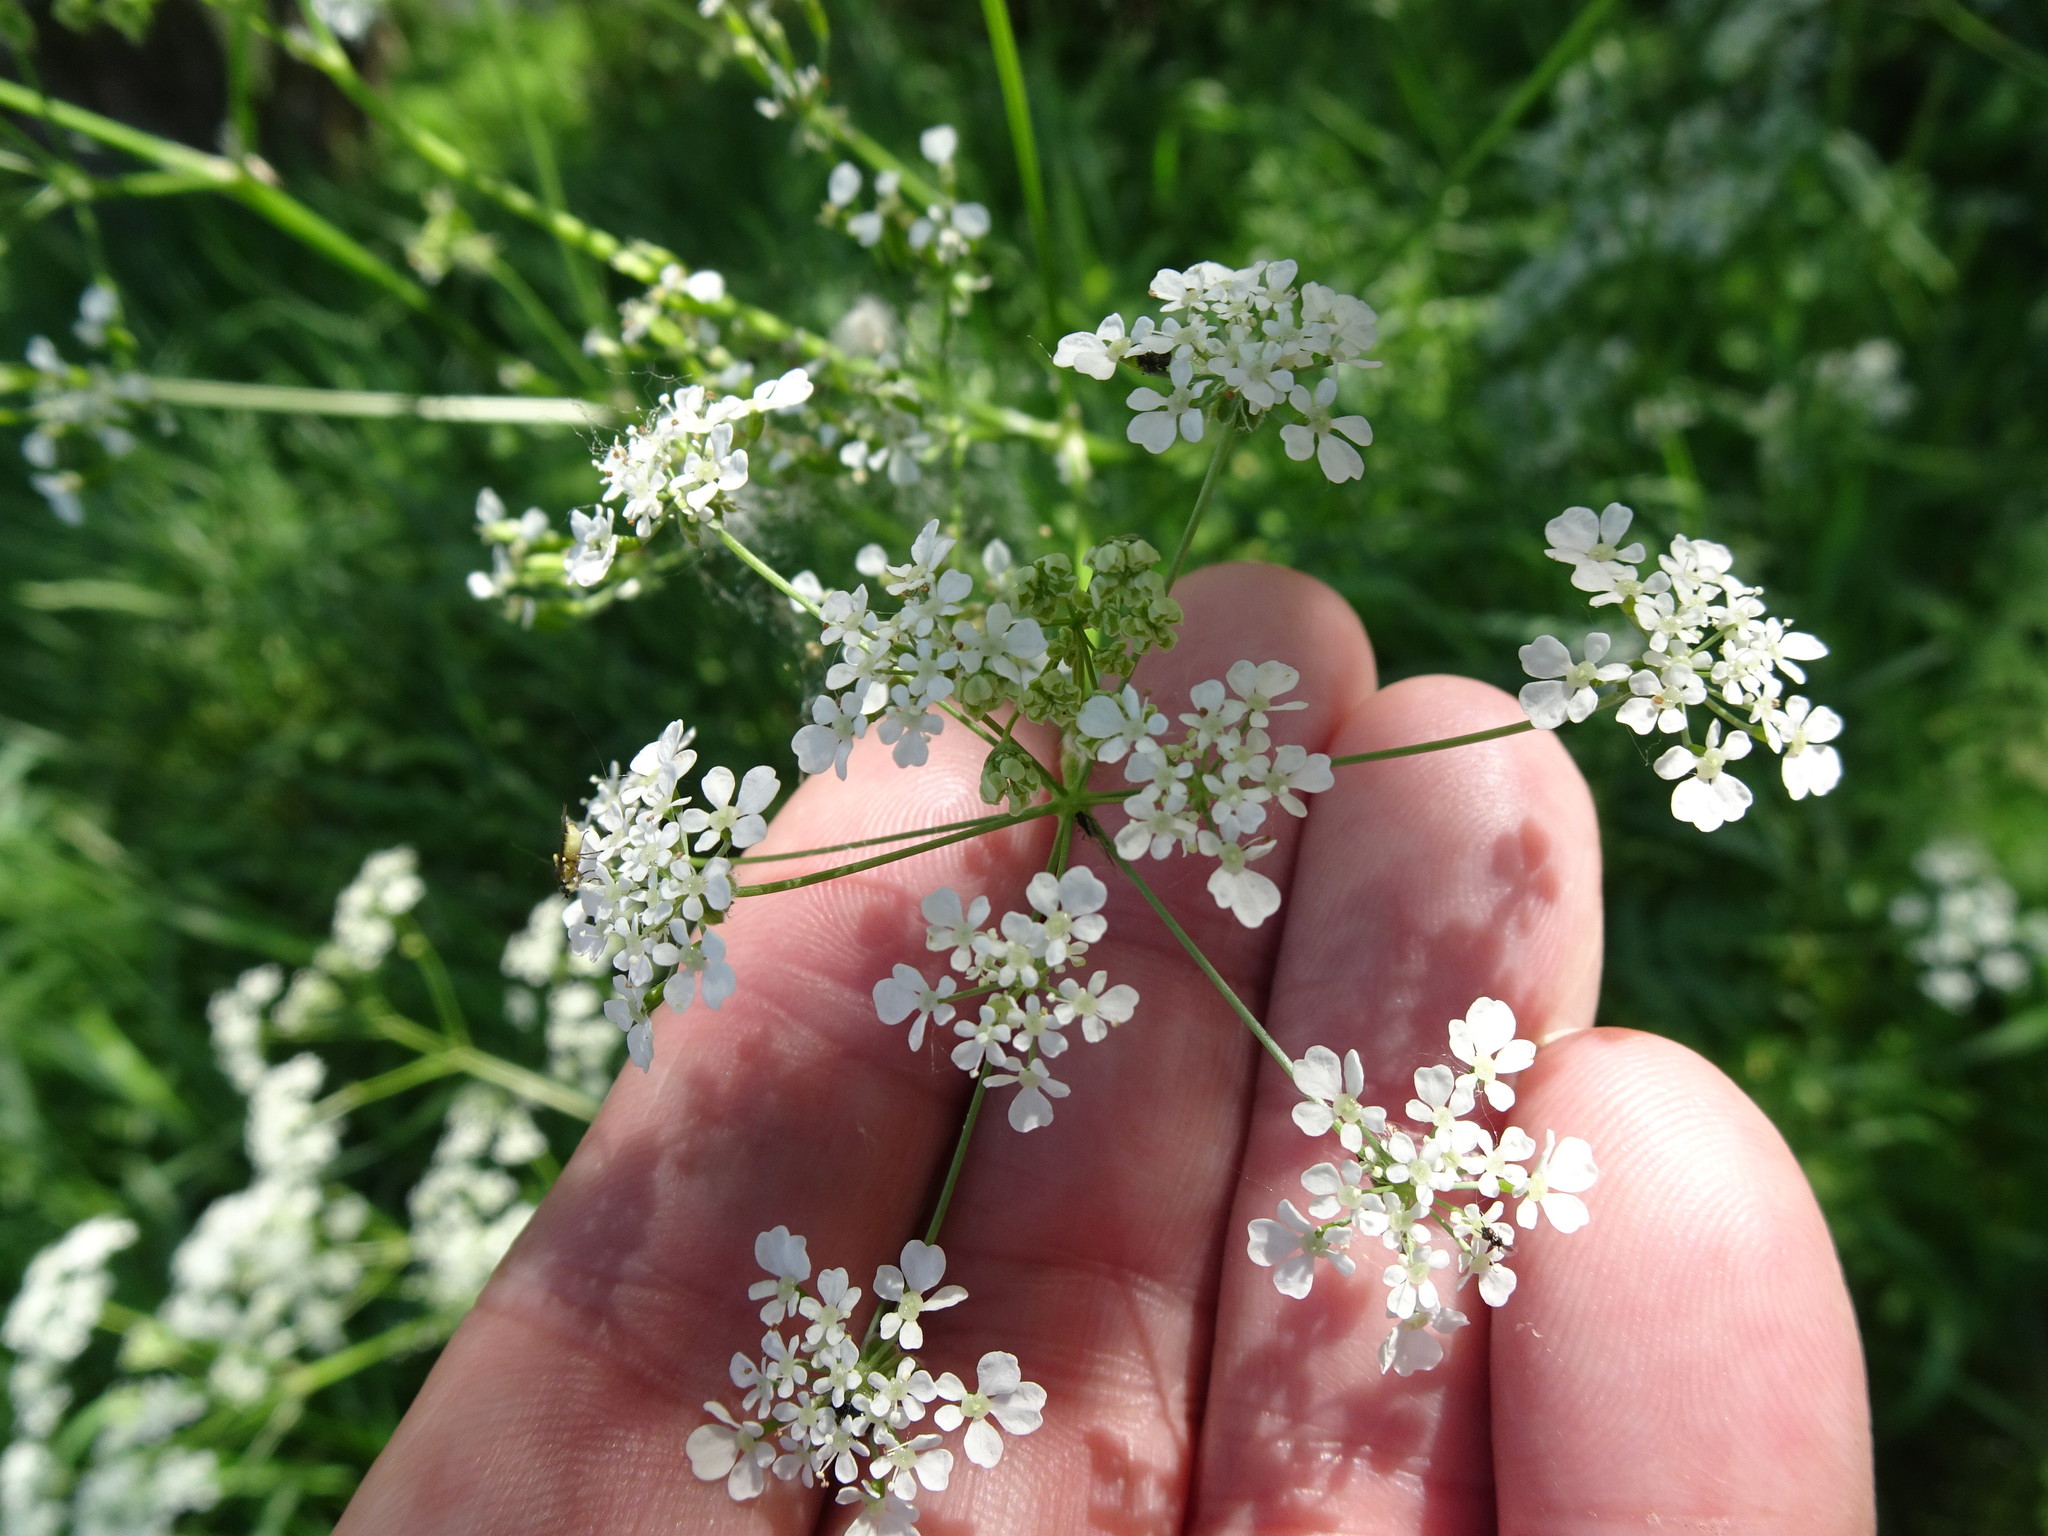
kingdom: Plantae
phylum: Tracheophyta
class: Magnoliopsida
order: Apiales
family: Apiaceae
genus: Anthriscus
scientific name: Anthriscus sylvestris
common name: Cow parsley
